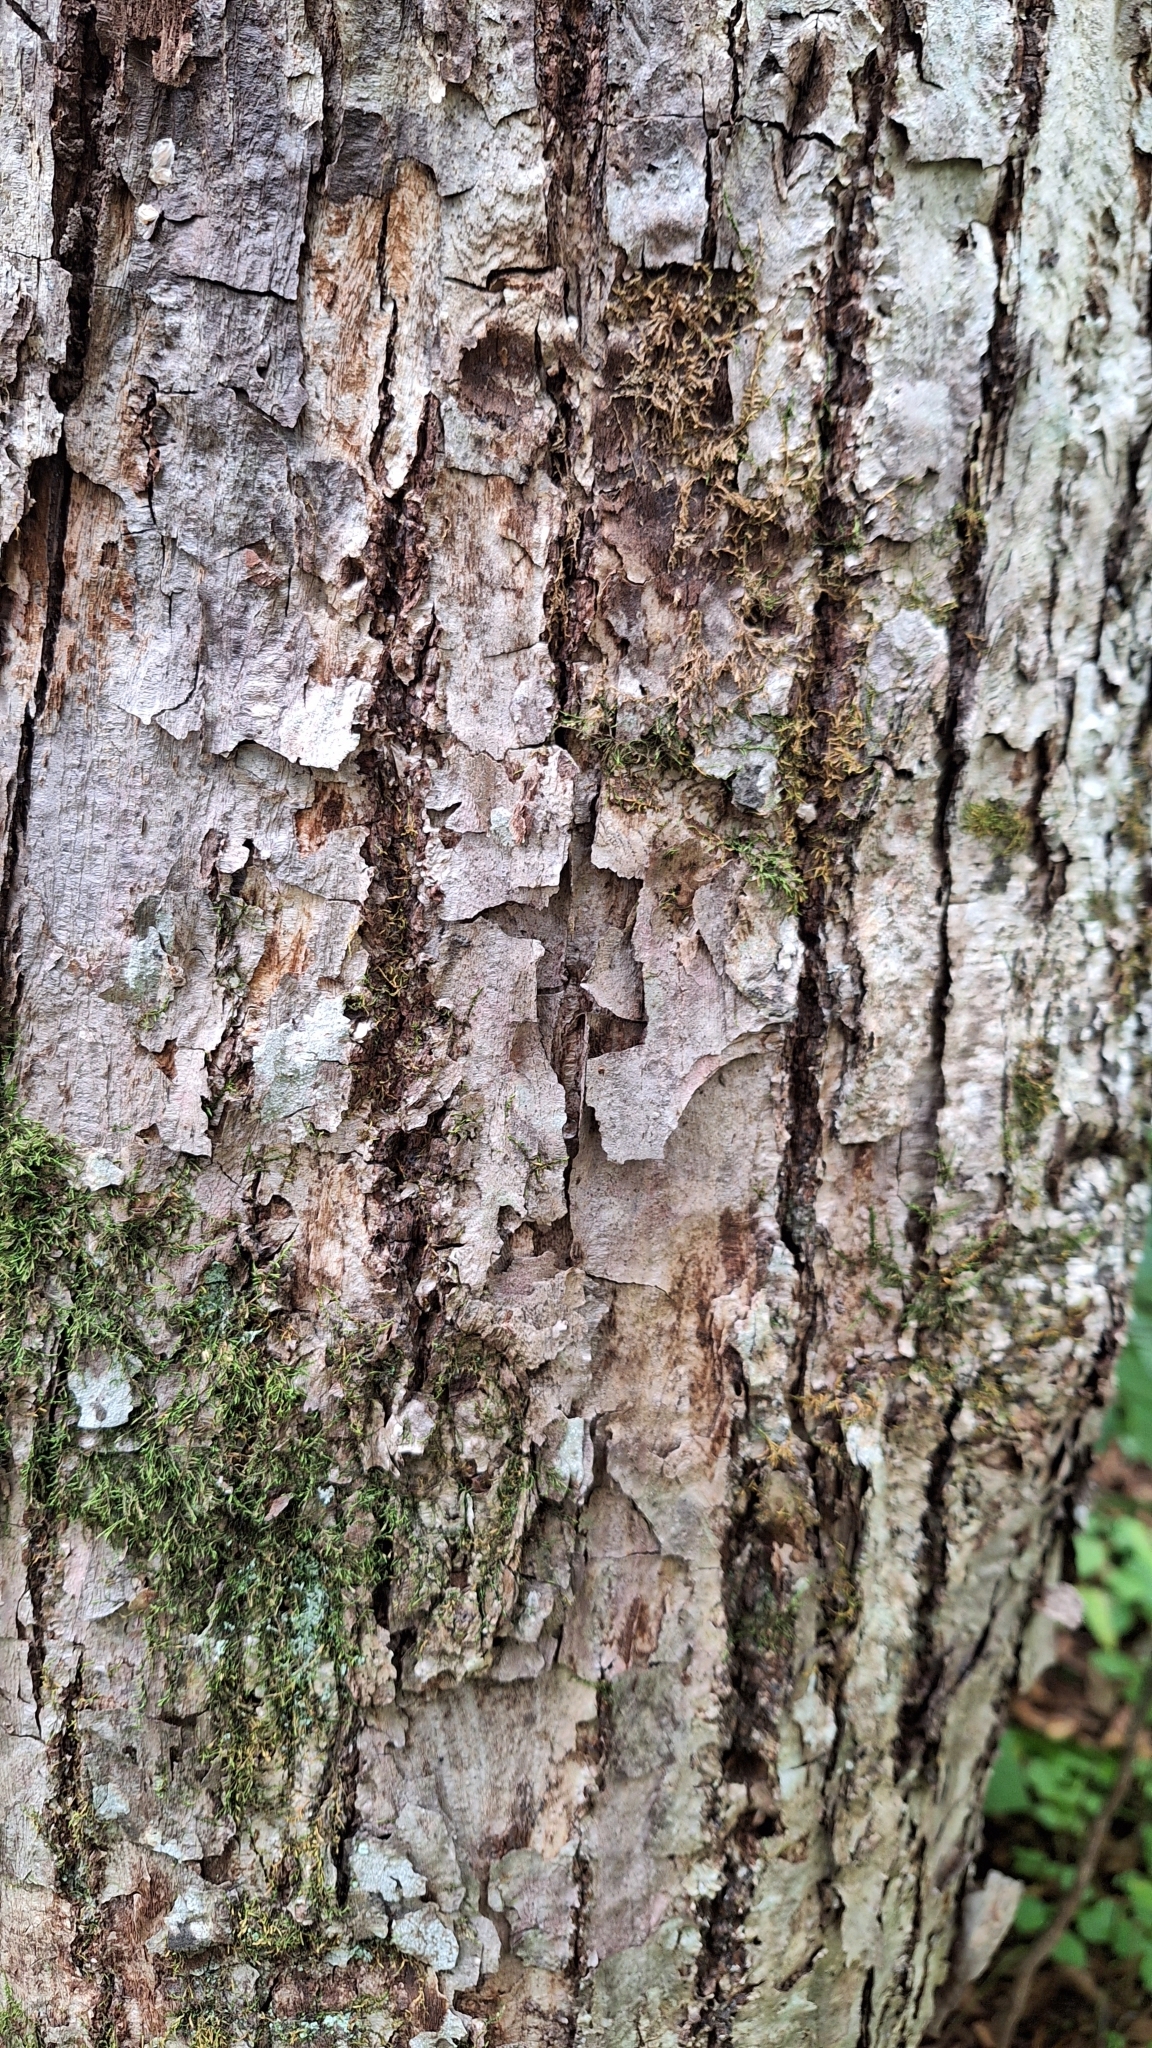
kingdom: Plantae
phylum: Tracheophyta
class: Magnoliopsida
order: Malvales
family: Malvaceae
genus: Tilia
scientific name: Tilia amurensis
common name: Amur lime
